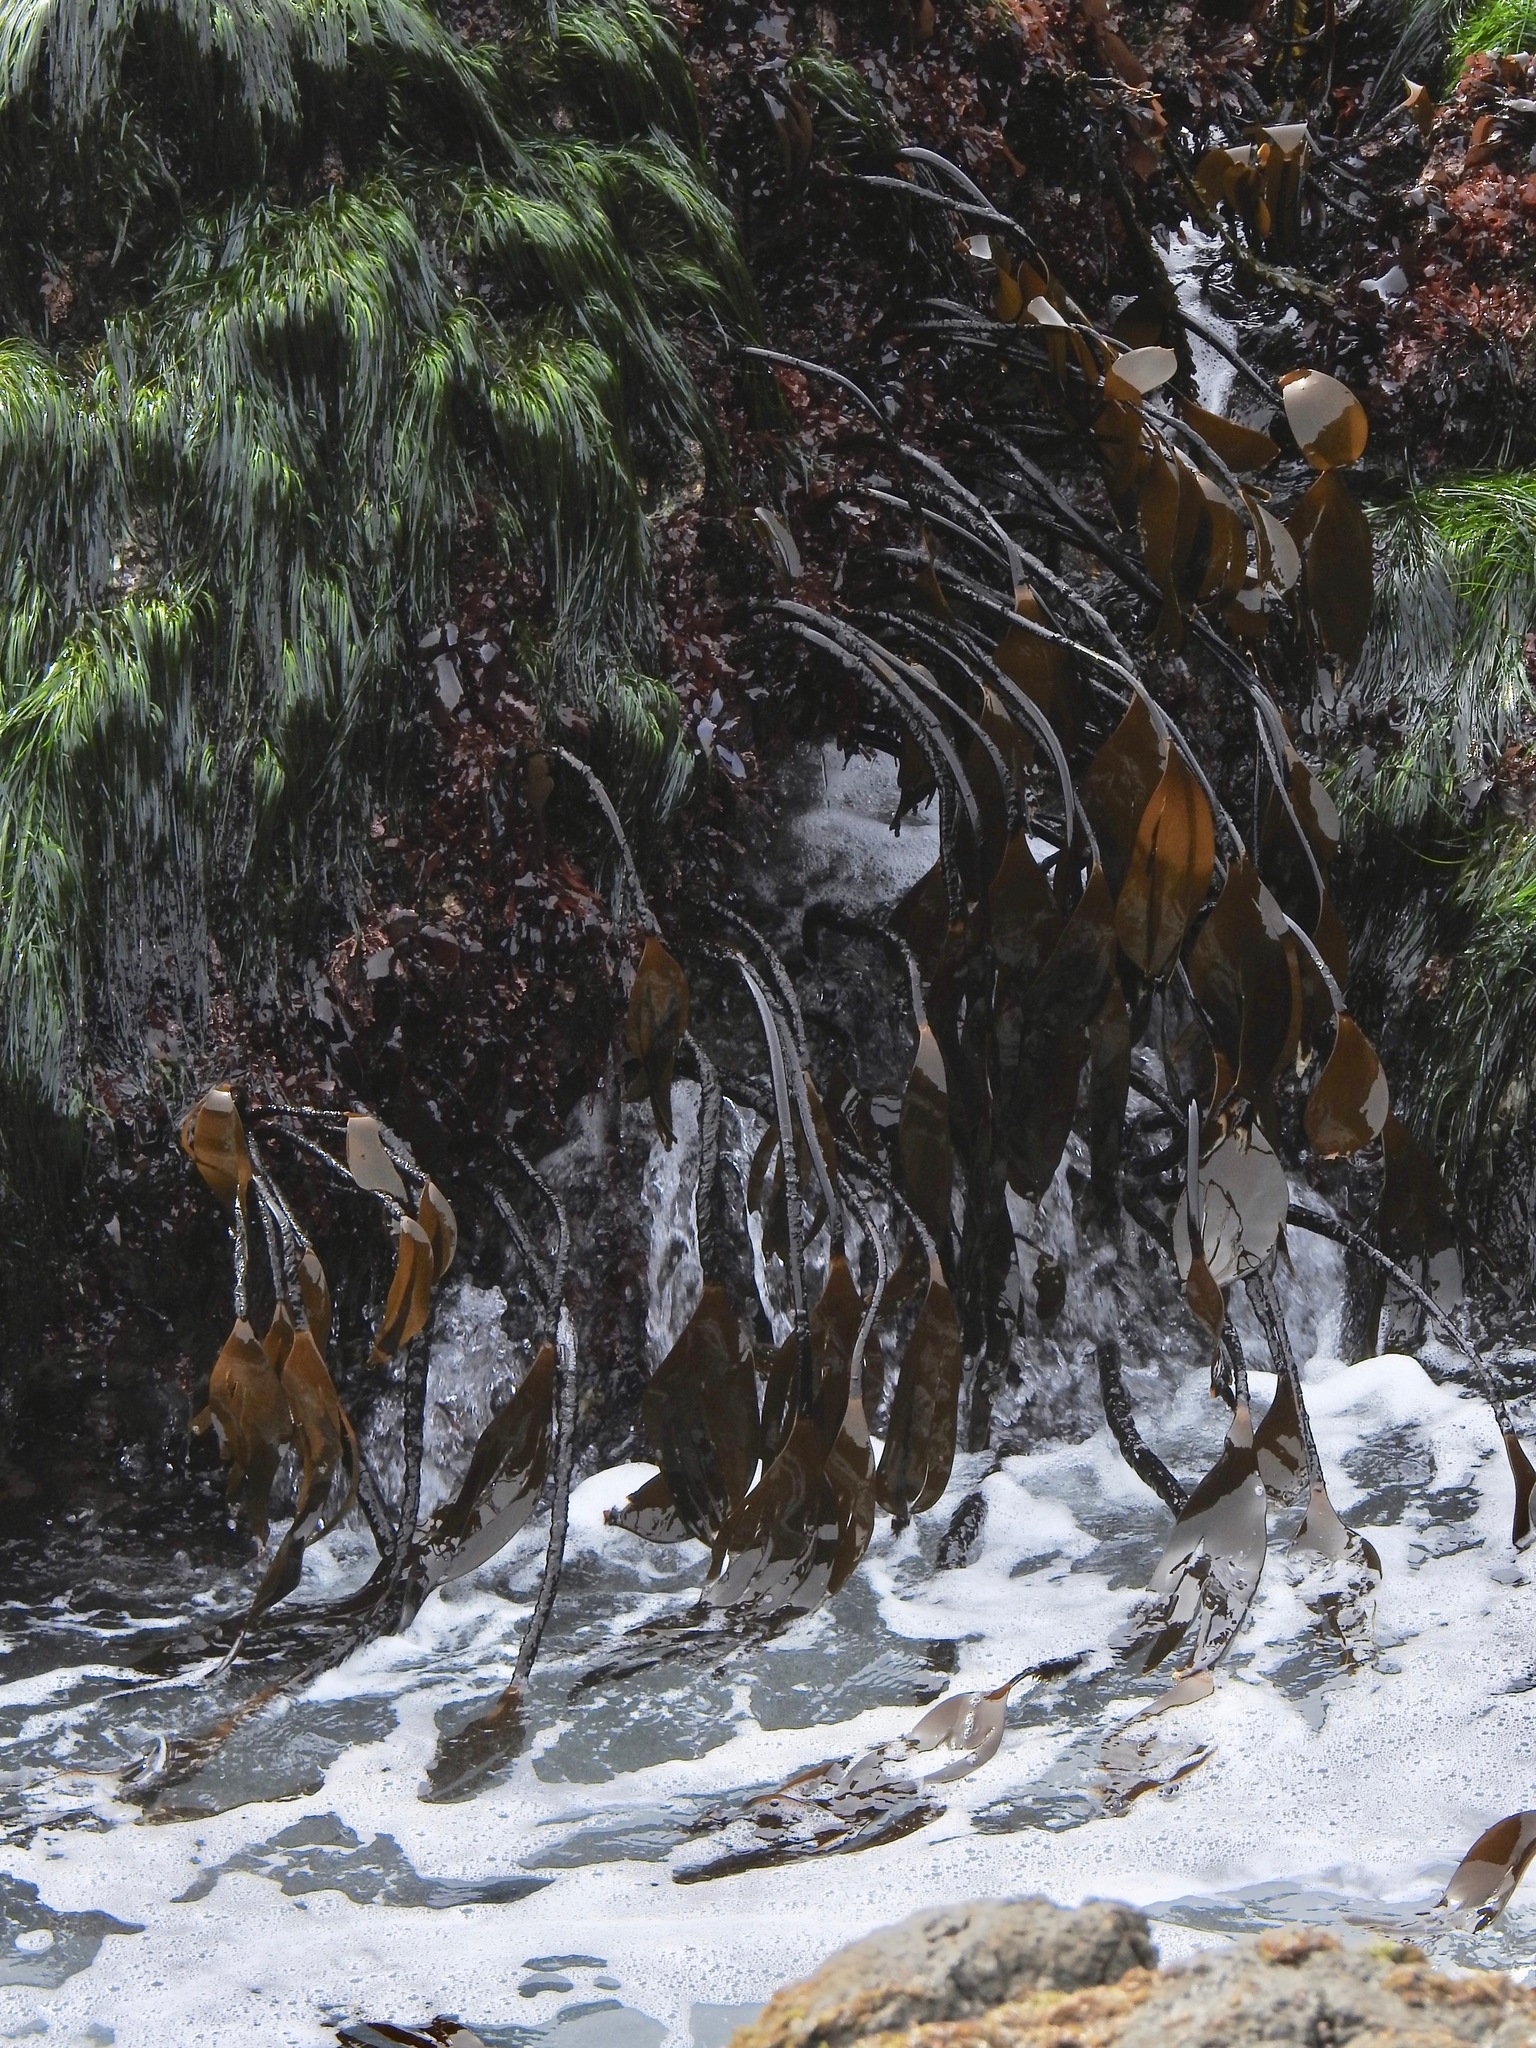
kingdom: Chromista
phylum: Ochrophyta
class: Phaeophyceae
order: Laminariales
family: Laminariaceae
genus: Laminaria
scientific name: Laminaria setchellii
